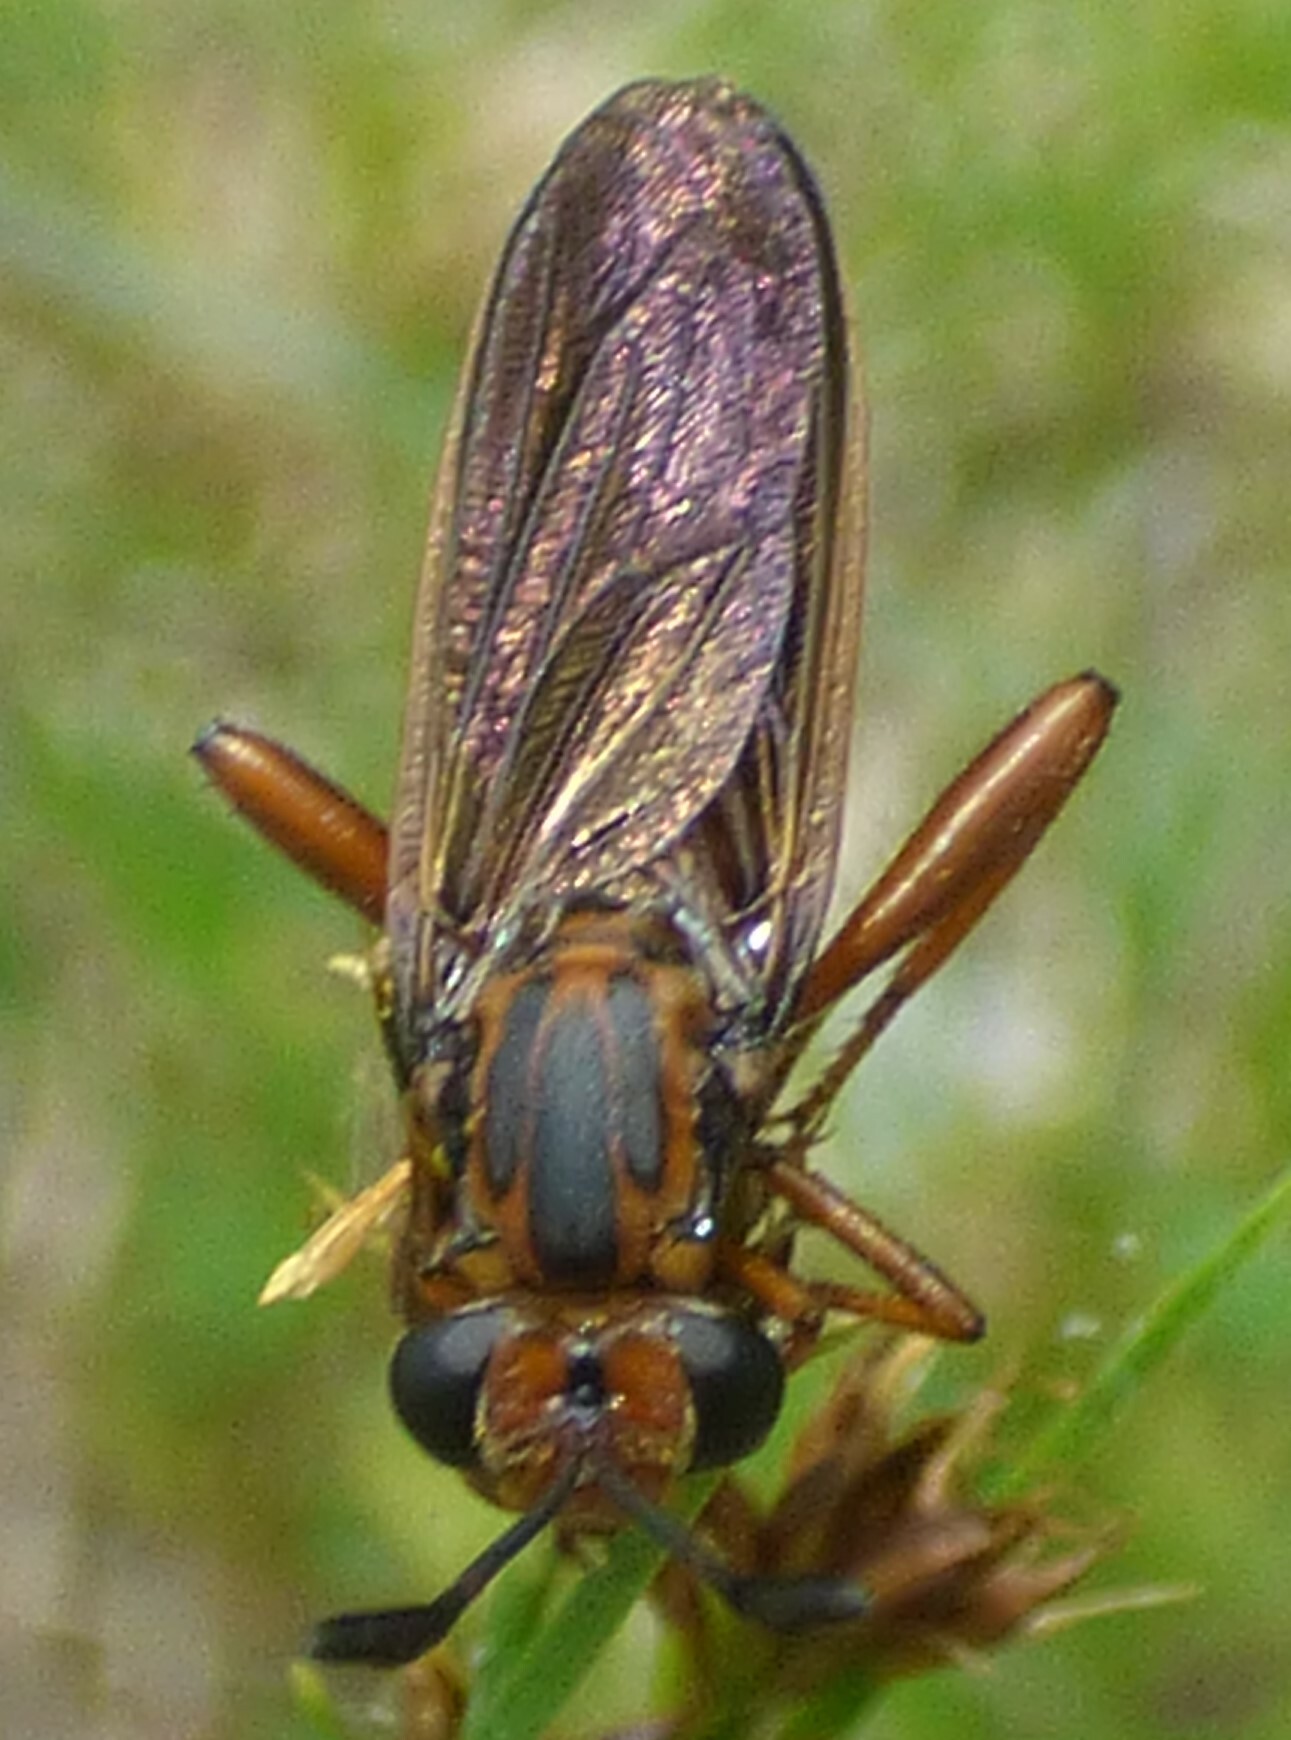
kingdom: Animalia
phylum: Arthropoda
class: Insecta
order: Diptera
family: Mydidae
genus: Phyllomydas
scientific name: Phyllomydas parvulus
